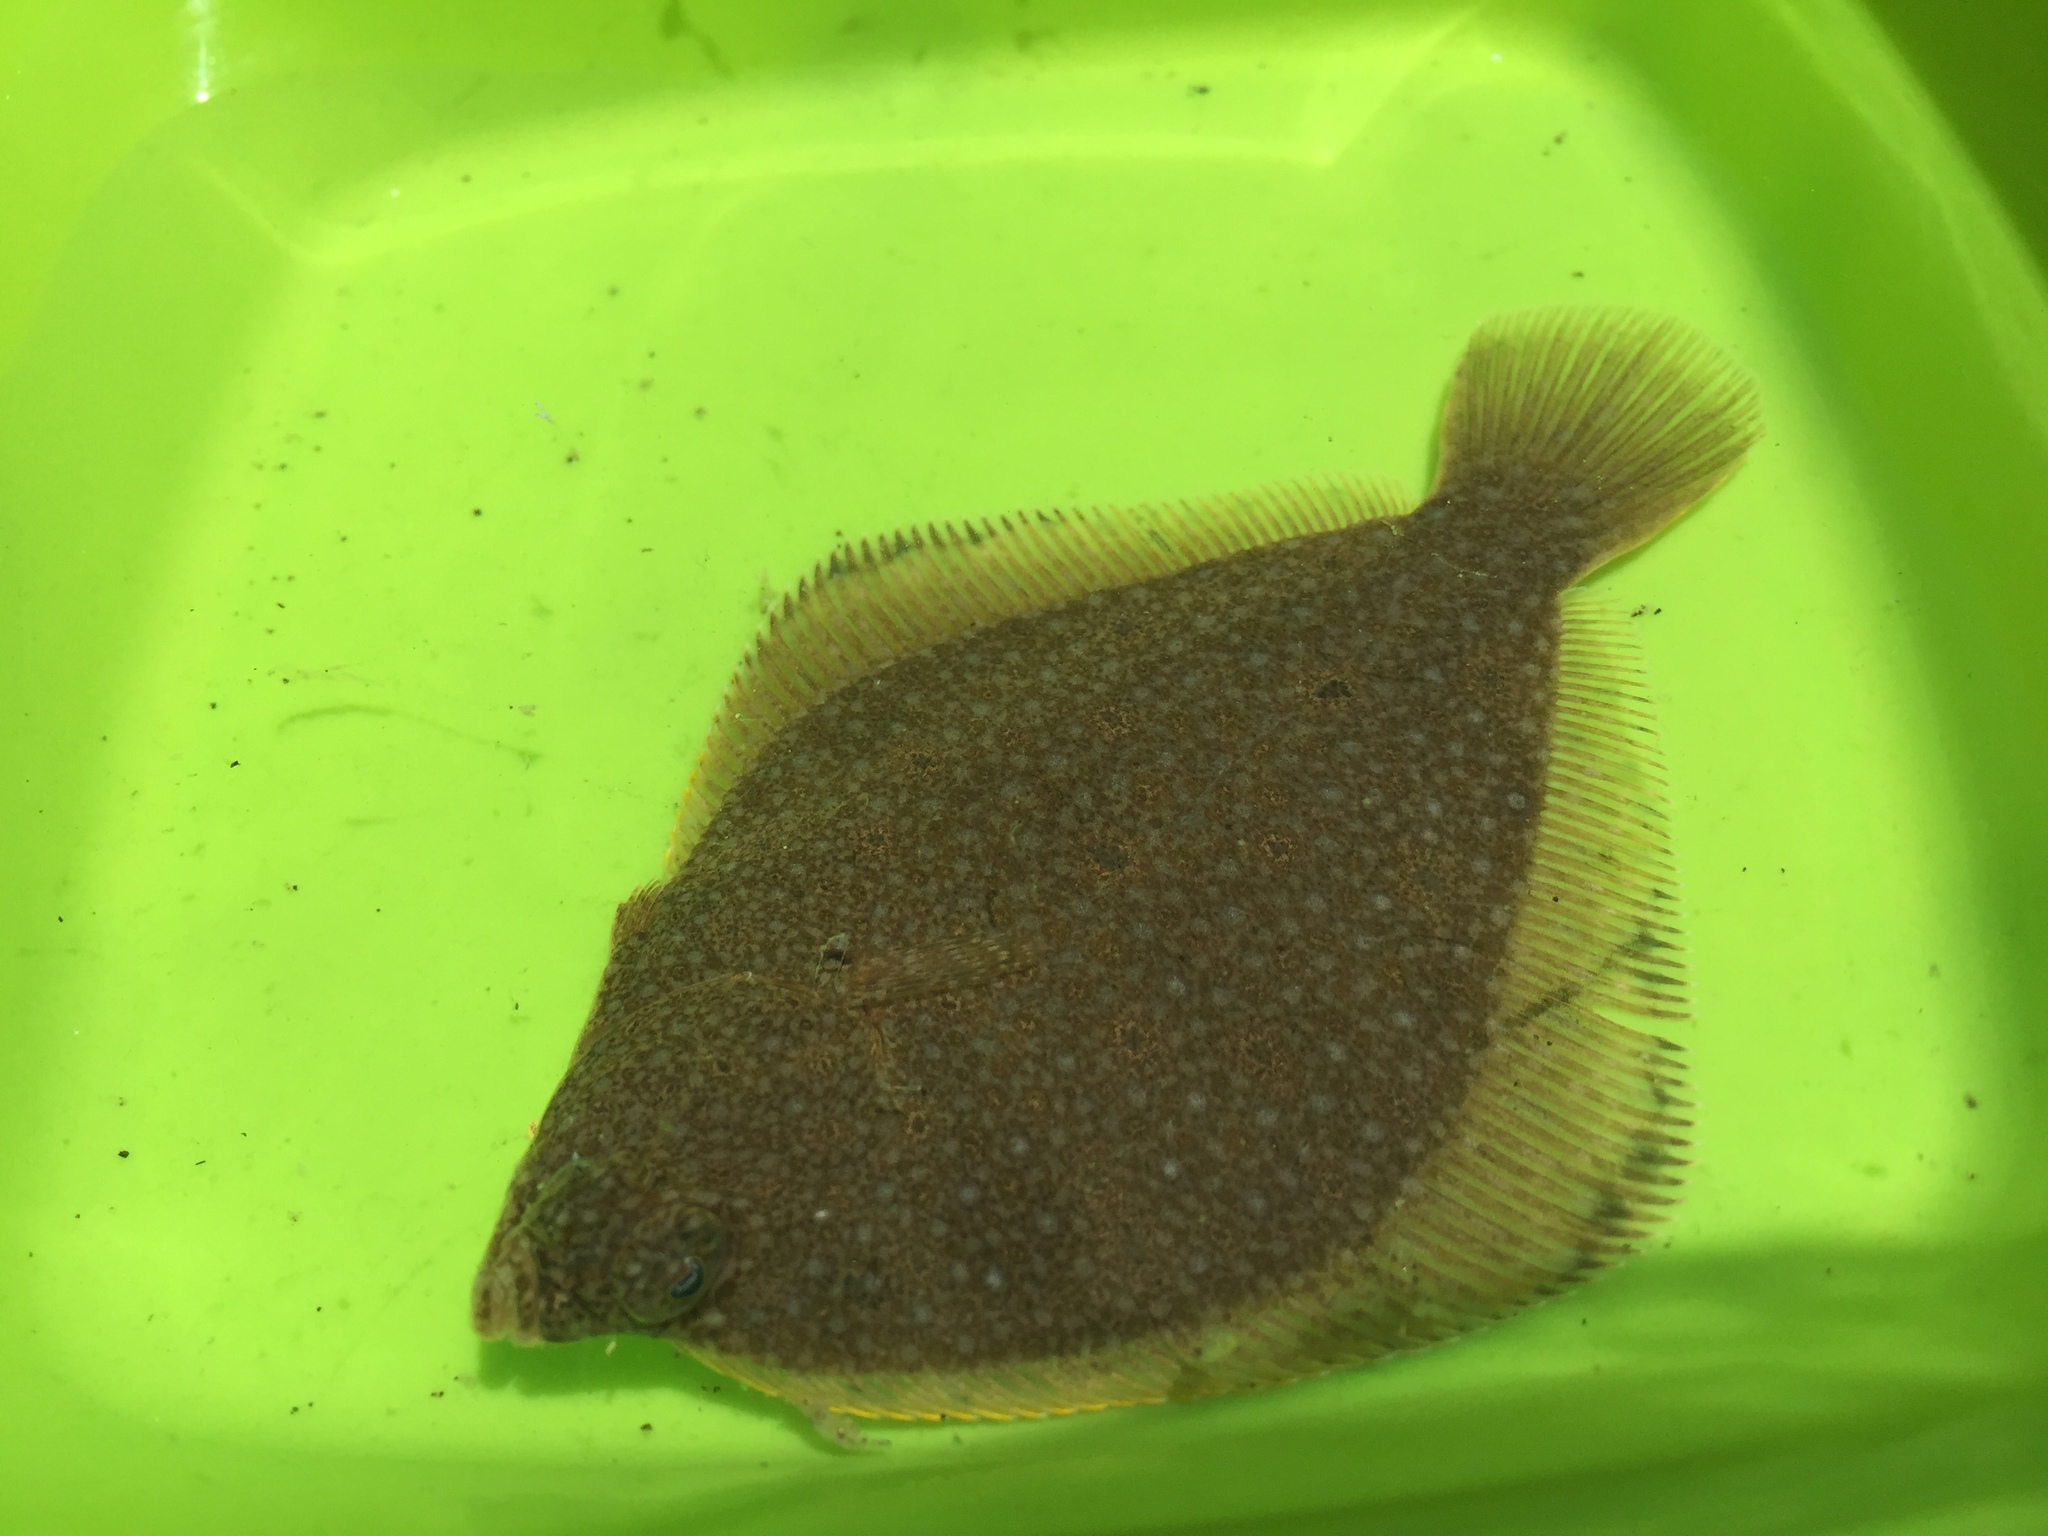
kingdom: Animalia
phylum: Chordata
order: Pleuronectiformes
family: Pleuronectidae
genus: Pleuronichthys
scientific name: Pleuronichthys ritteri
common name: Spotted turbot
